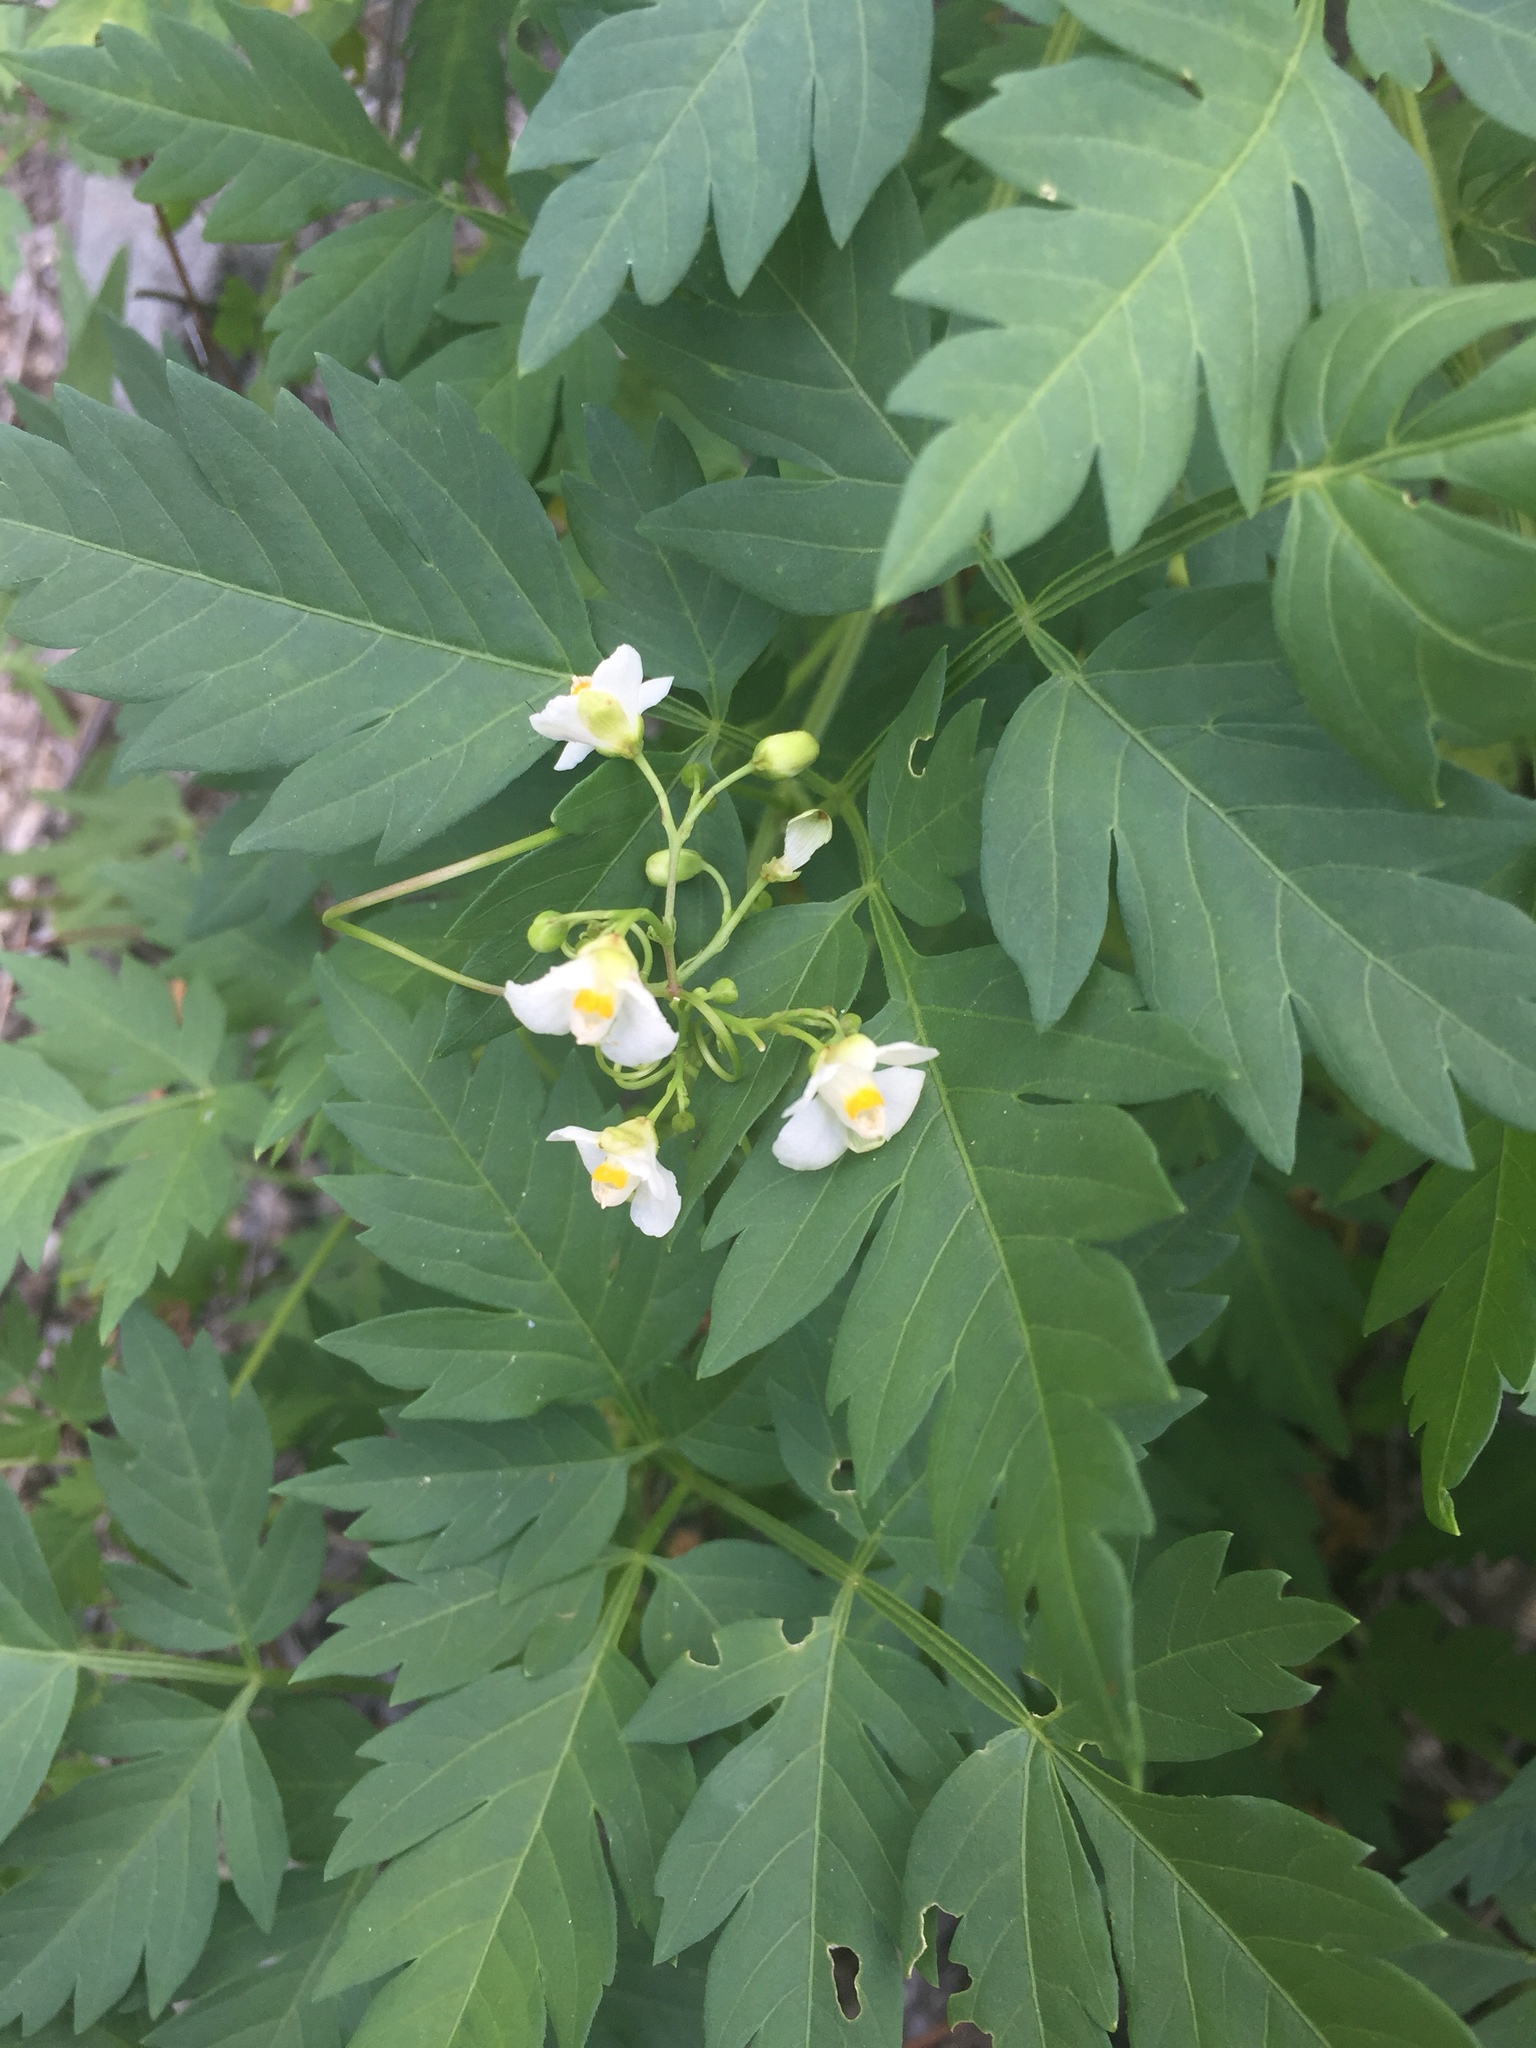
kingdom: Plantae
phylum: Tracheophyta
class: Magnoliopsida
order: Sapindales
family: Sapindaceae
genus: Cardiospermum
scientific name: Cardiospermum corindum
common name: Faux persil
